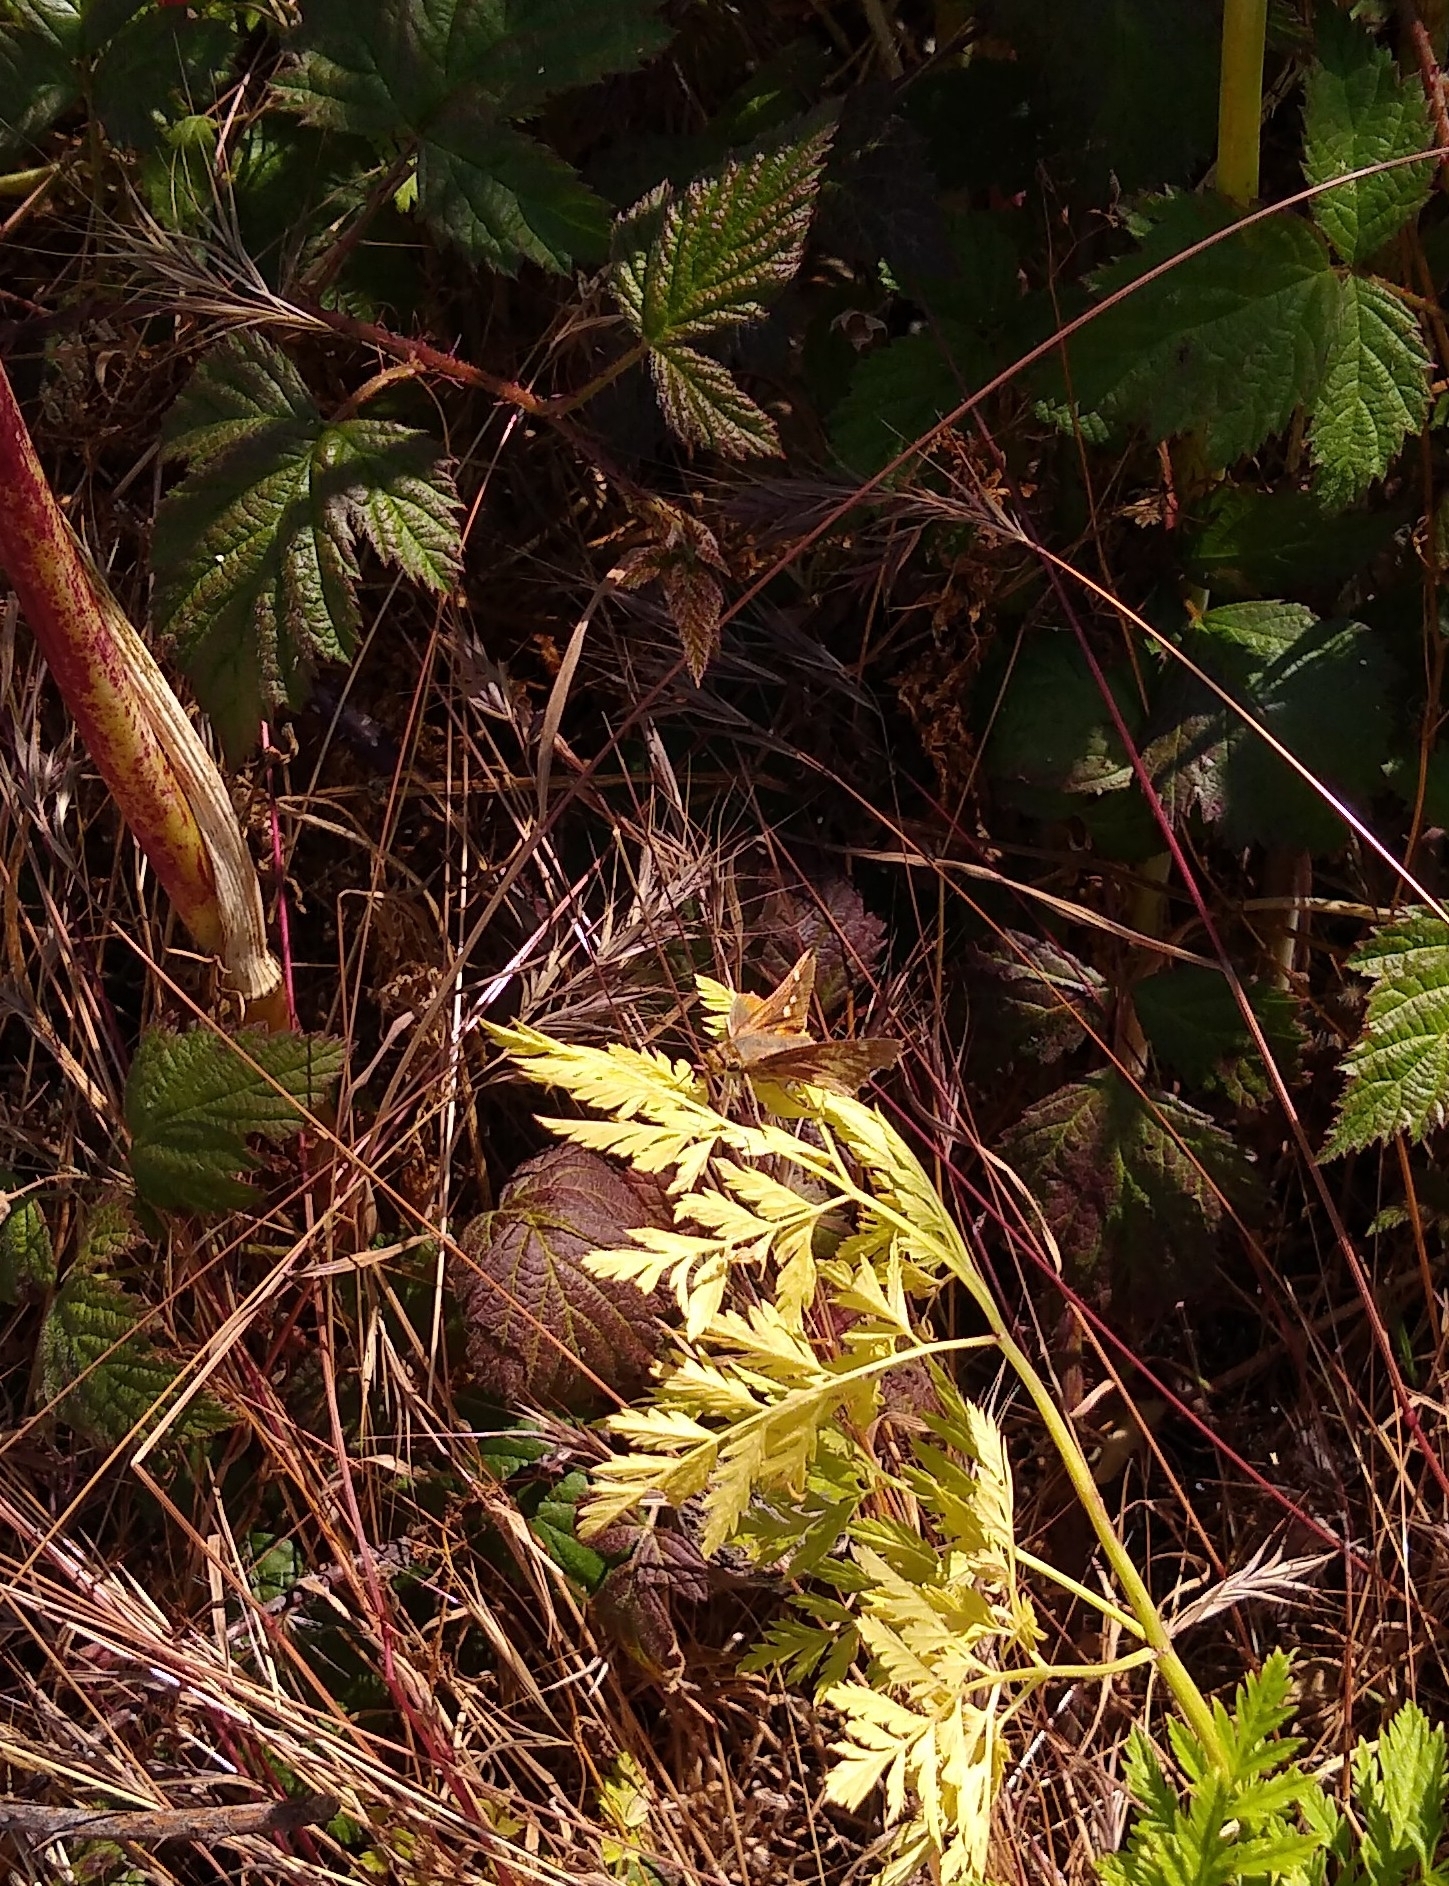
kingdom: Animalia
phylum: Arthropoda
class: Insecta
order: Lepidoptera
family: Hesperiidae
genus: Lon
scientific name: Lon melane
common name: Umber skipper
